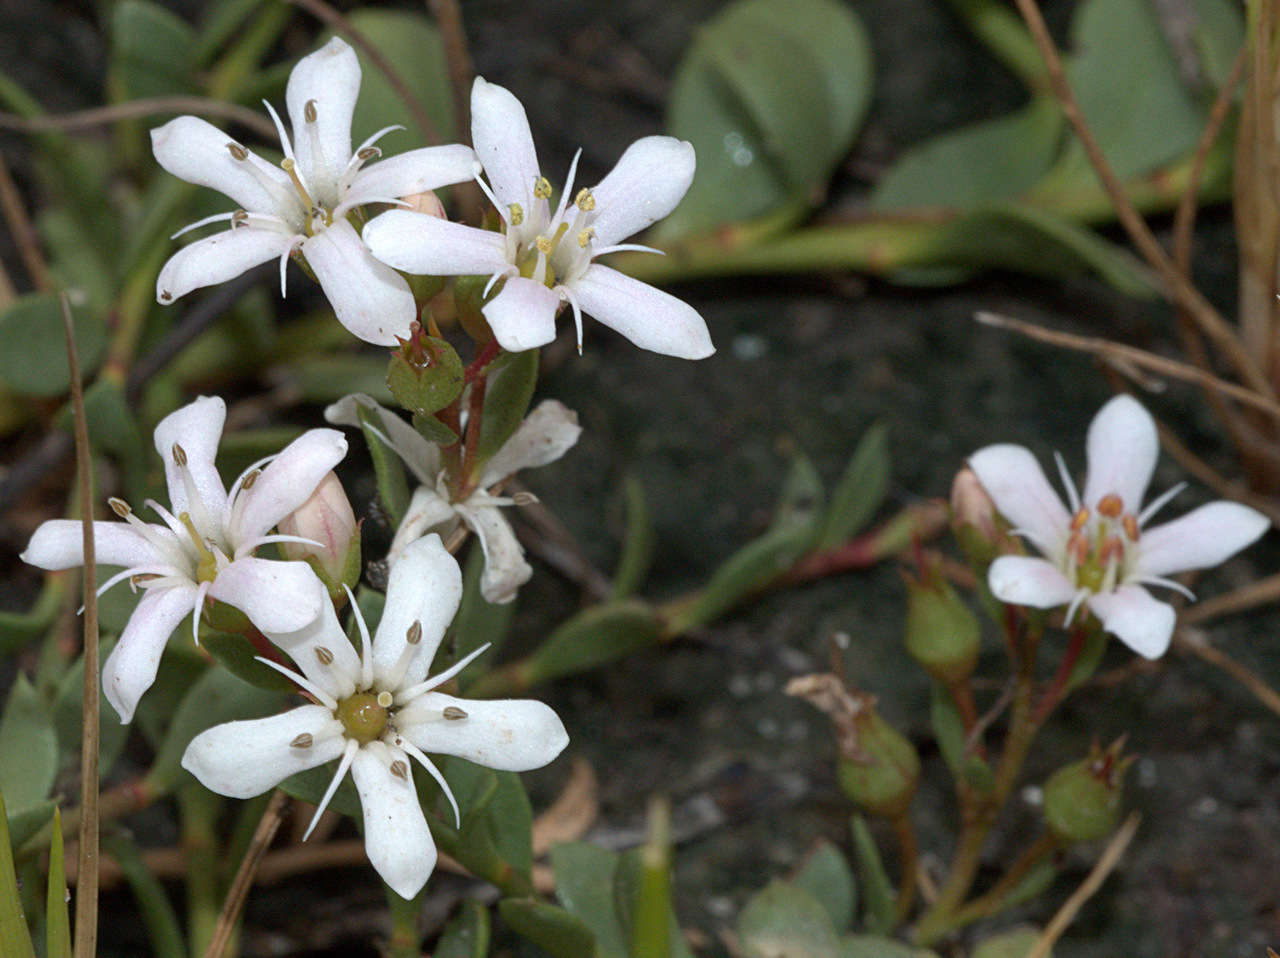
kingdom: Plantae
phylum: Tracheophyta
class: Magnoliopsida
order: Ericales
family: Primulaceae
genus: Samolus
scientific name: Samolus repens
